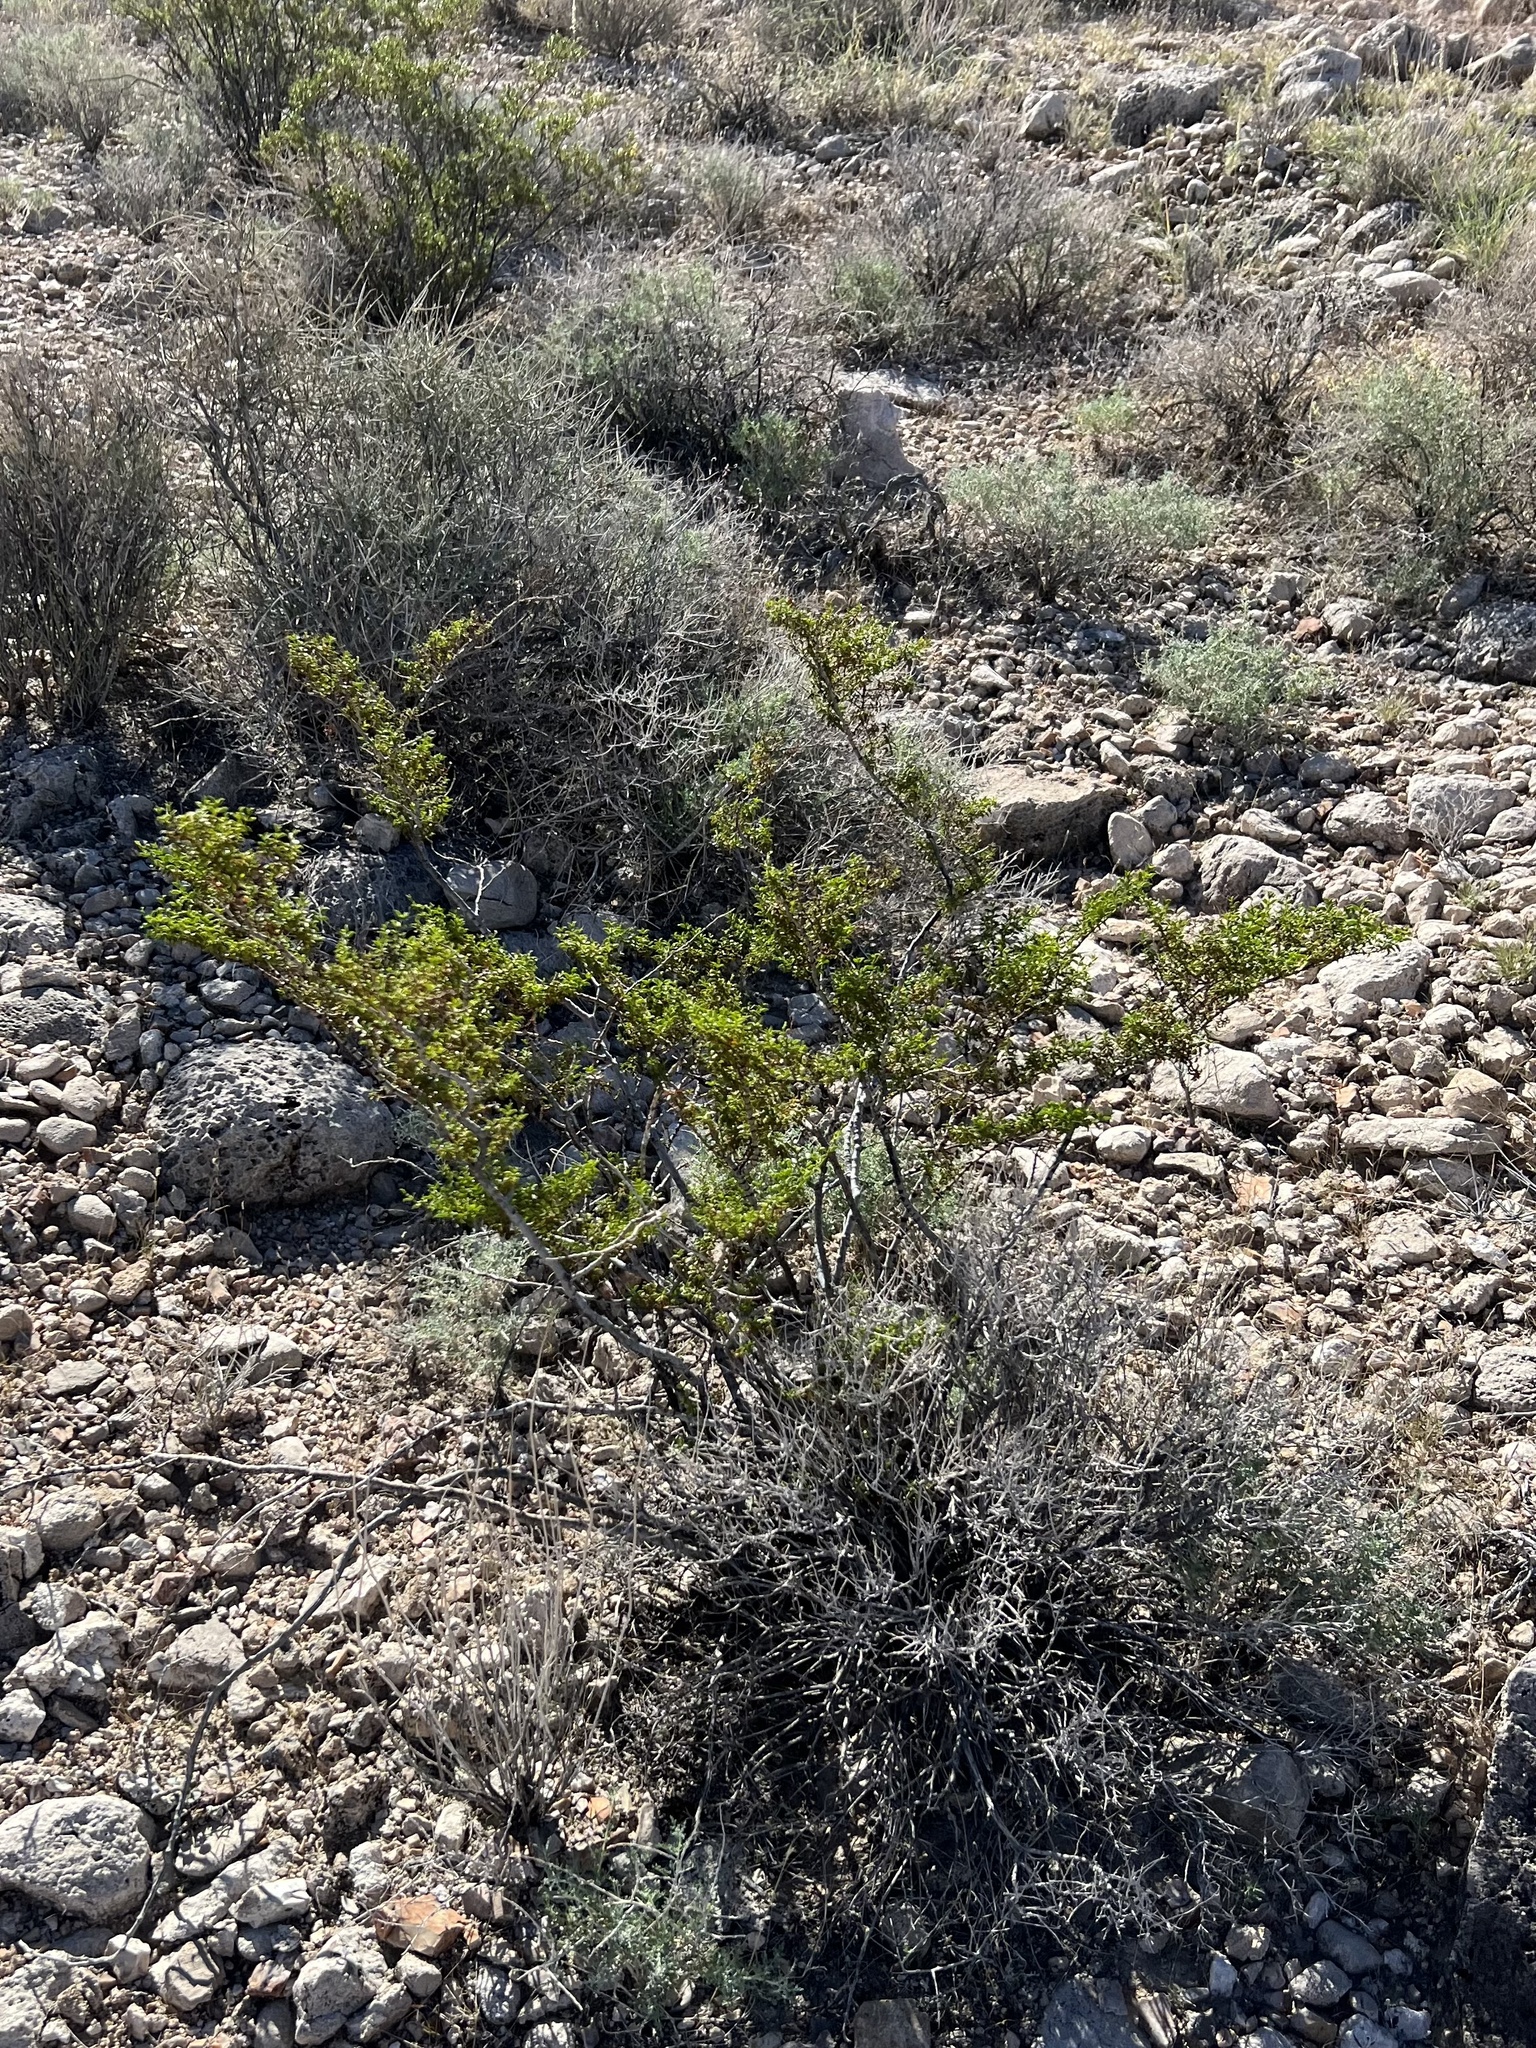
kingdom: Plantae
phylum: Tracheophyta
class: Magnoliopsida
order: Zygophyllales
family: Zygophyllaceae
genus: Larrea
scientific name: Larrea tridentata
